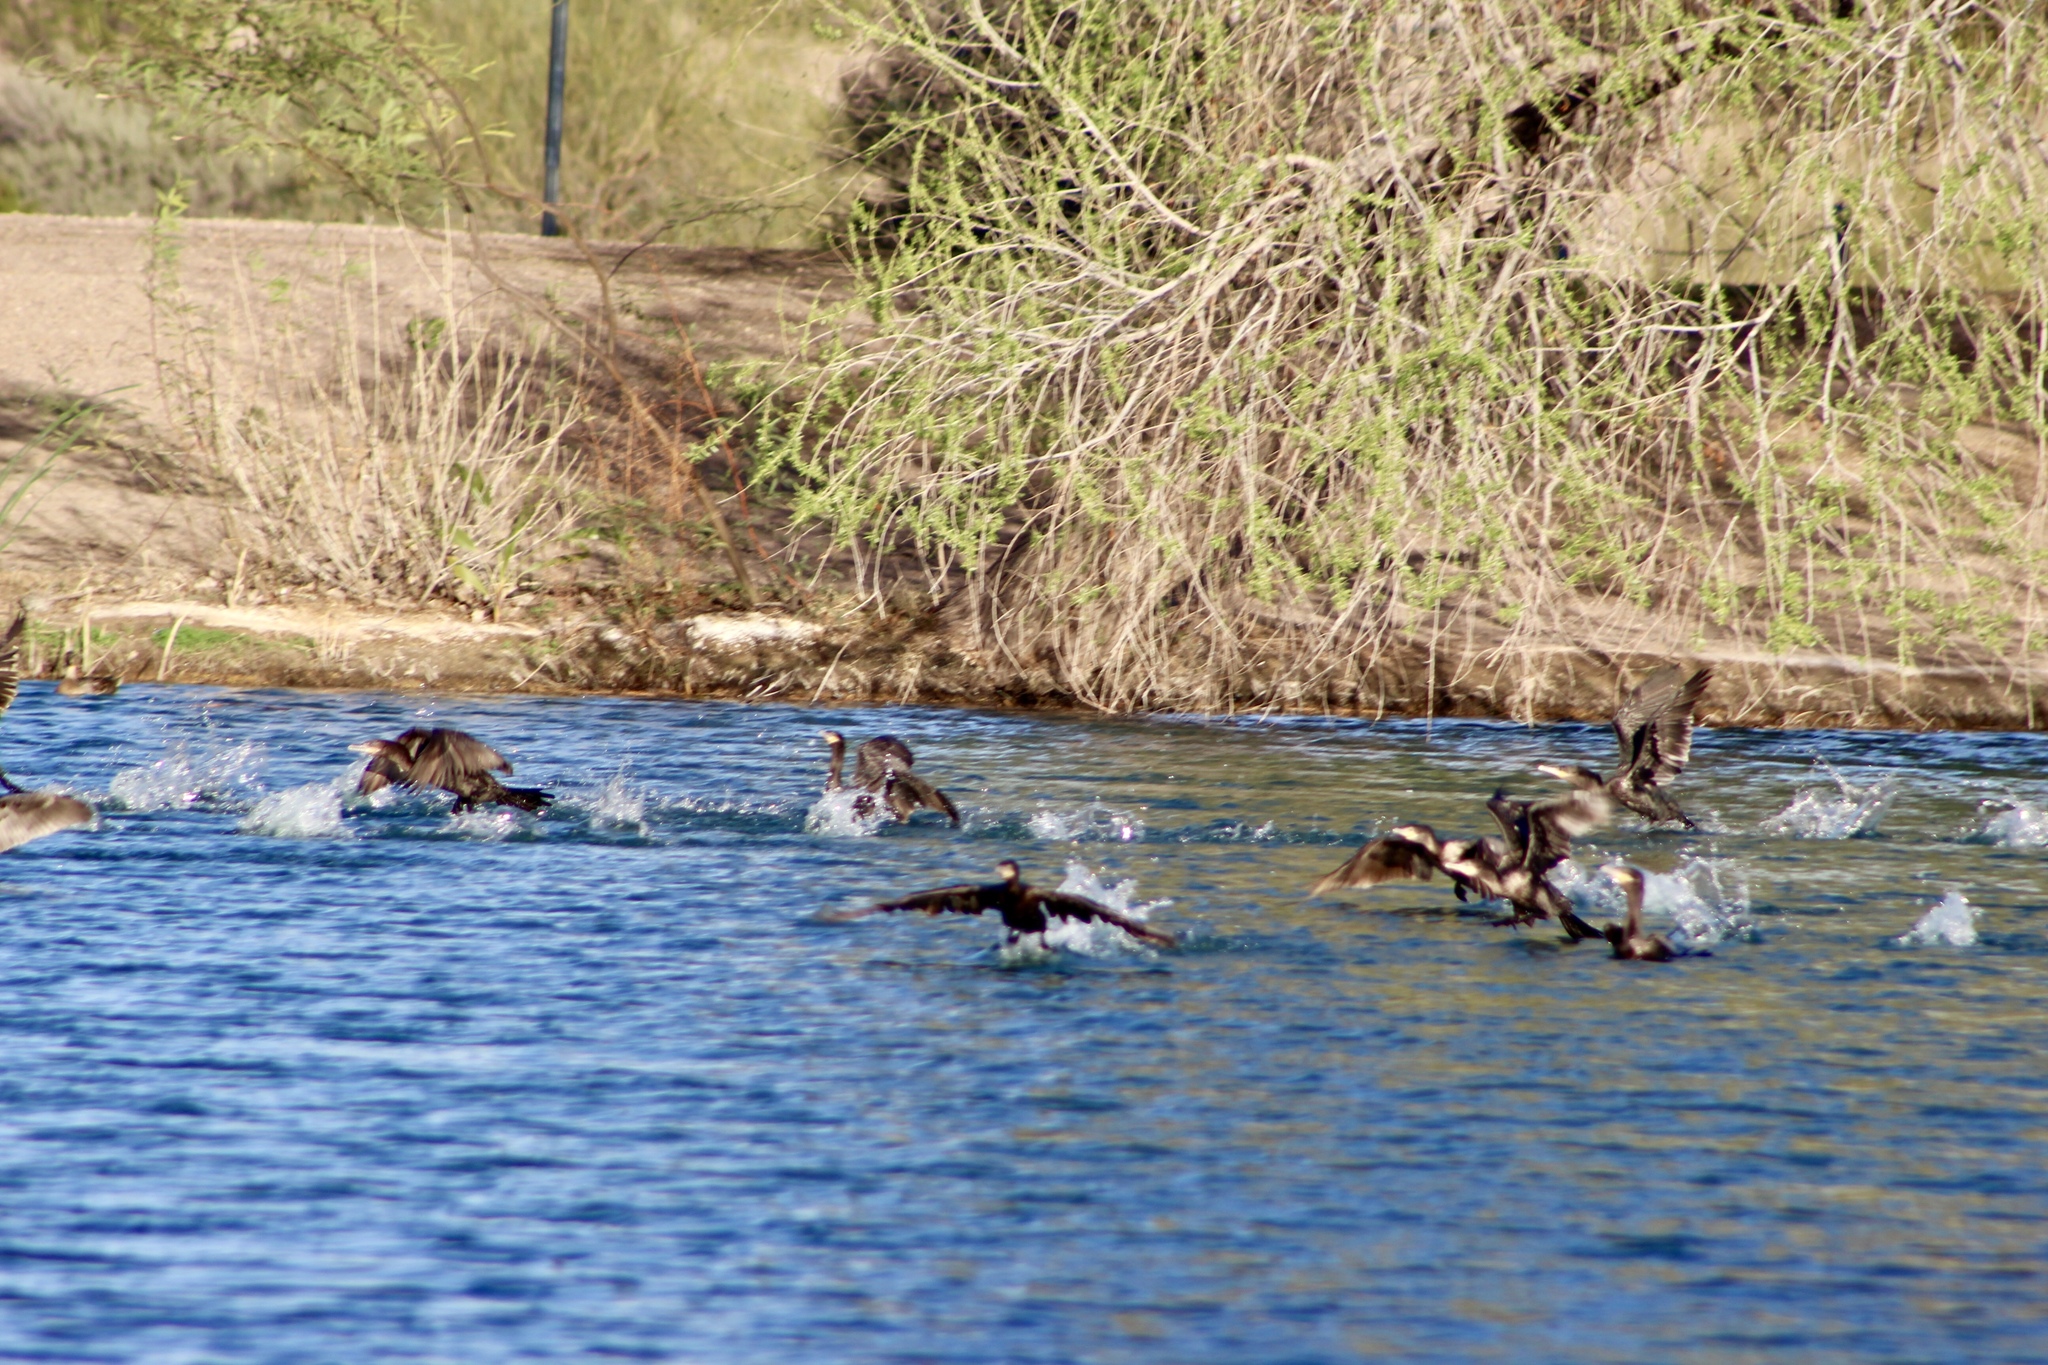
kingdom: Animalia
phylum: Chordata
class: Aves
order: Suliformes
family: Phalacrocoracidae
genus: Phalacrocorax
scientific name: Phalacrocorax brasilianus
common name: Neotropic cormorant
